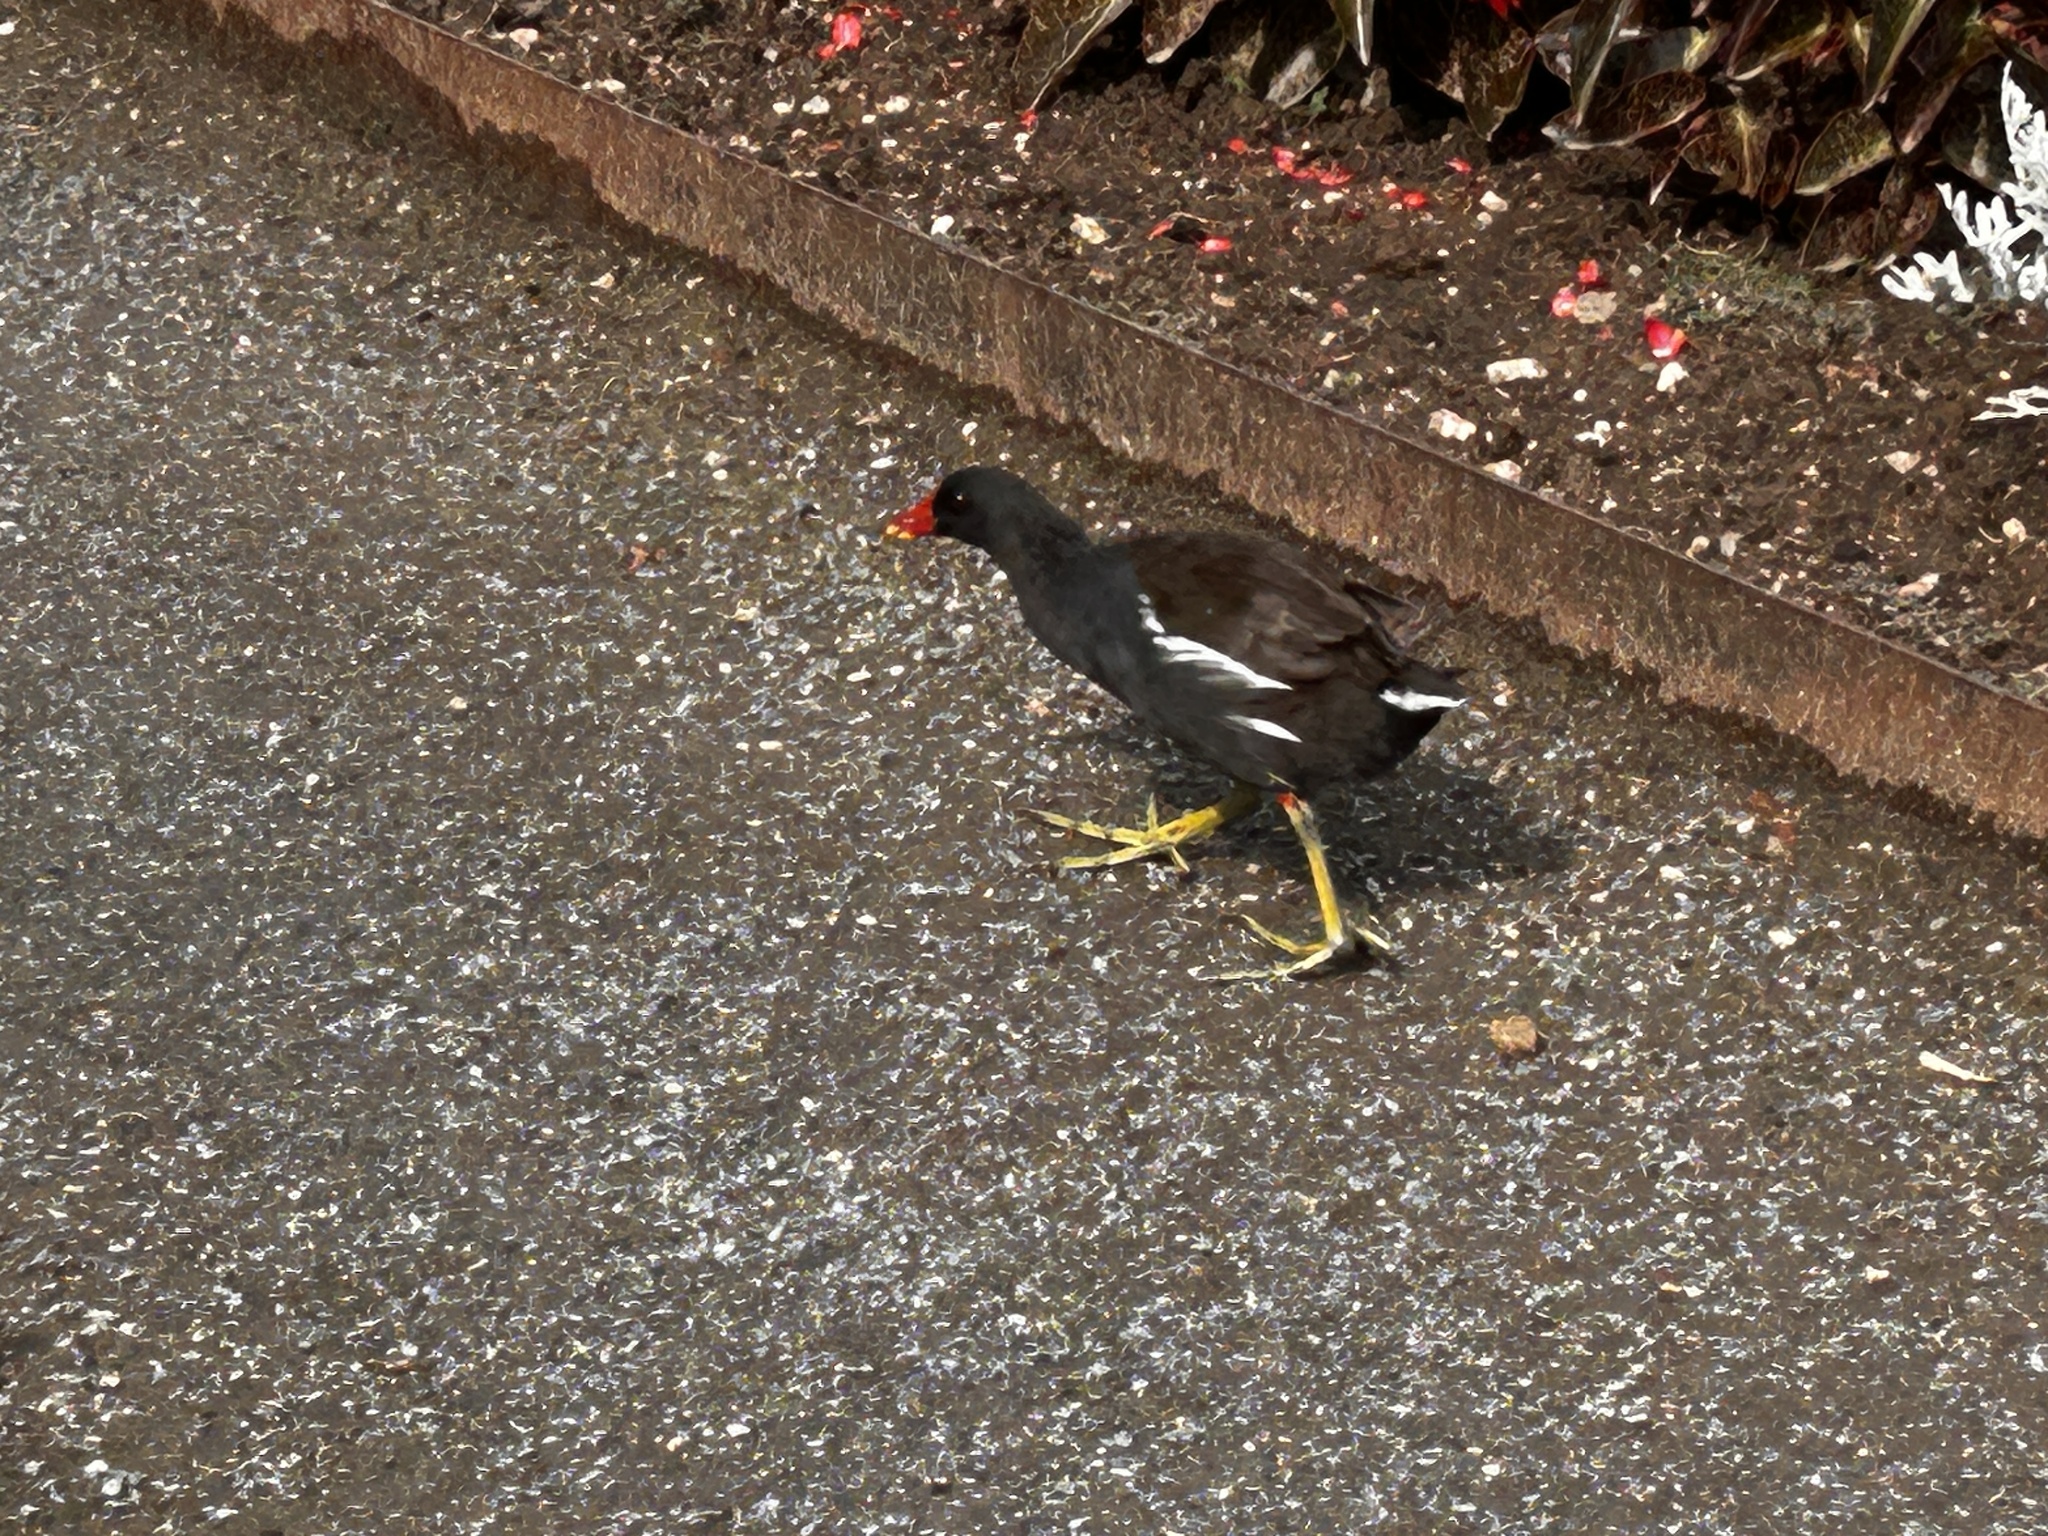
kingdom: Animalia
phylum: Chordata
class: Aves
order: Gruiformes
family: Rallidae
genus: Gallinula
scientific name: Gallinula chloropus
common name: Common moorhen
